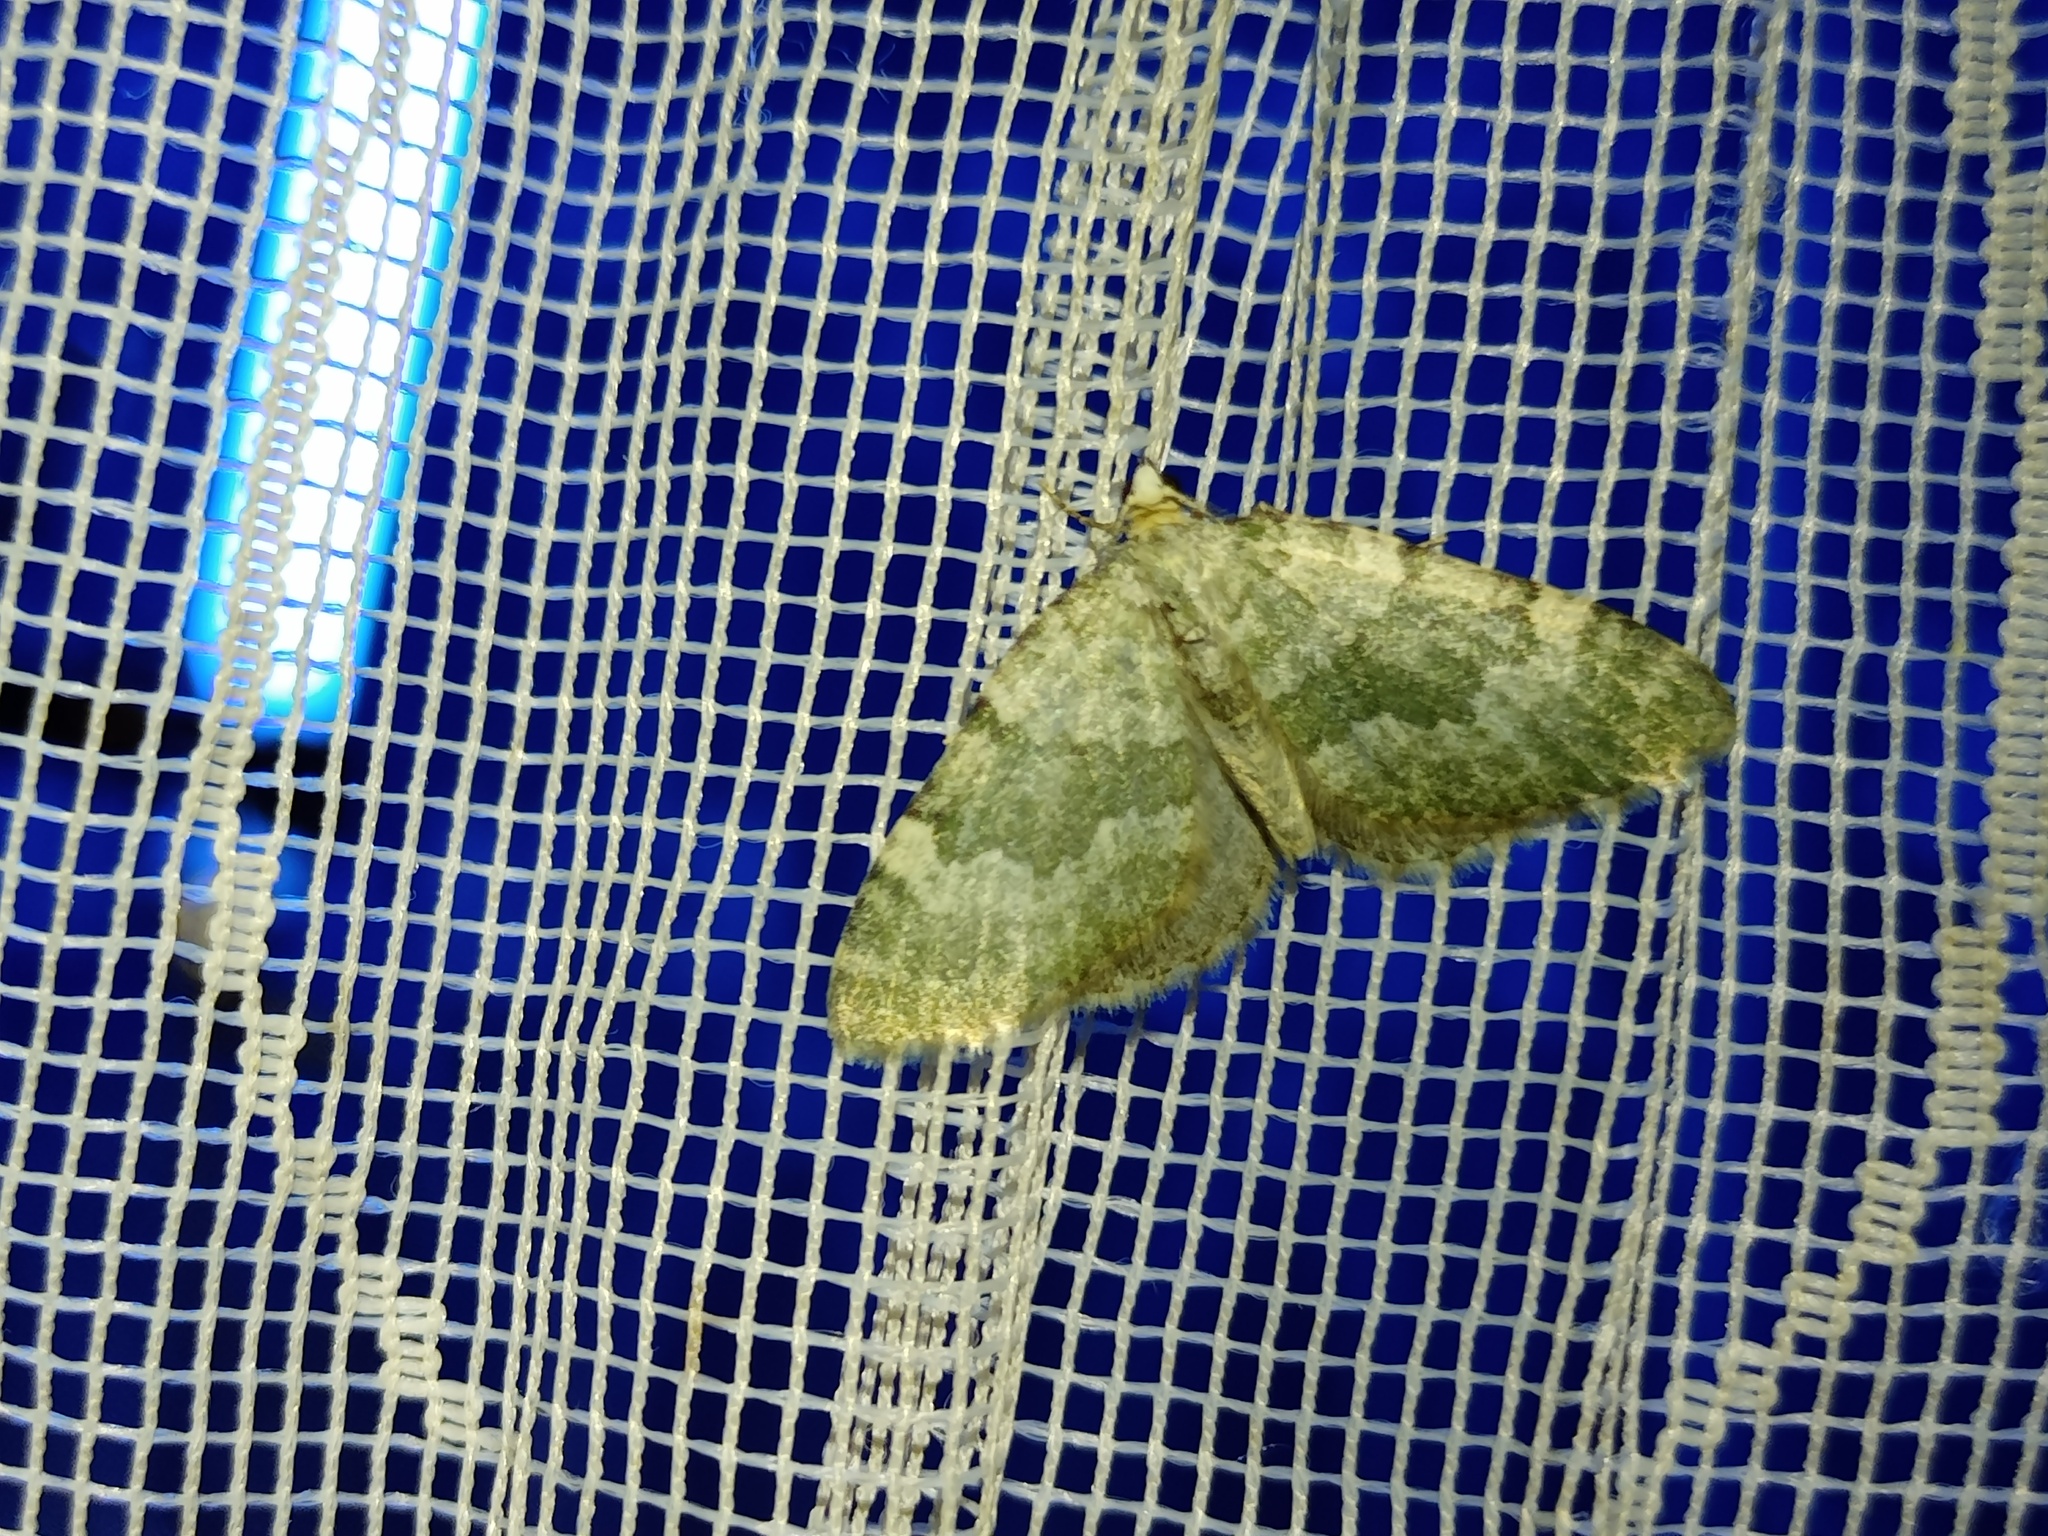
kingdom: Animalia
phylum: Arthropoda
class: Insecta
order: Lepidoptera
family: Geometridae
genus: Colostygia
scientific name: Colostygia aqueata
